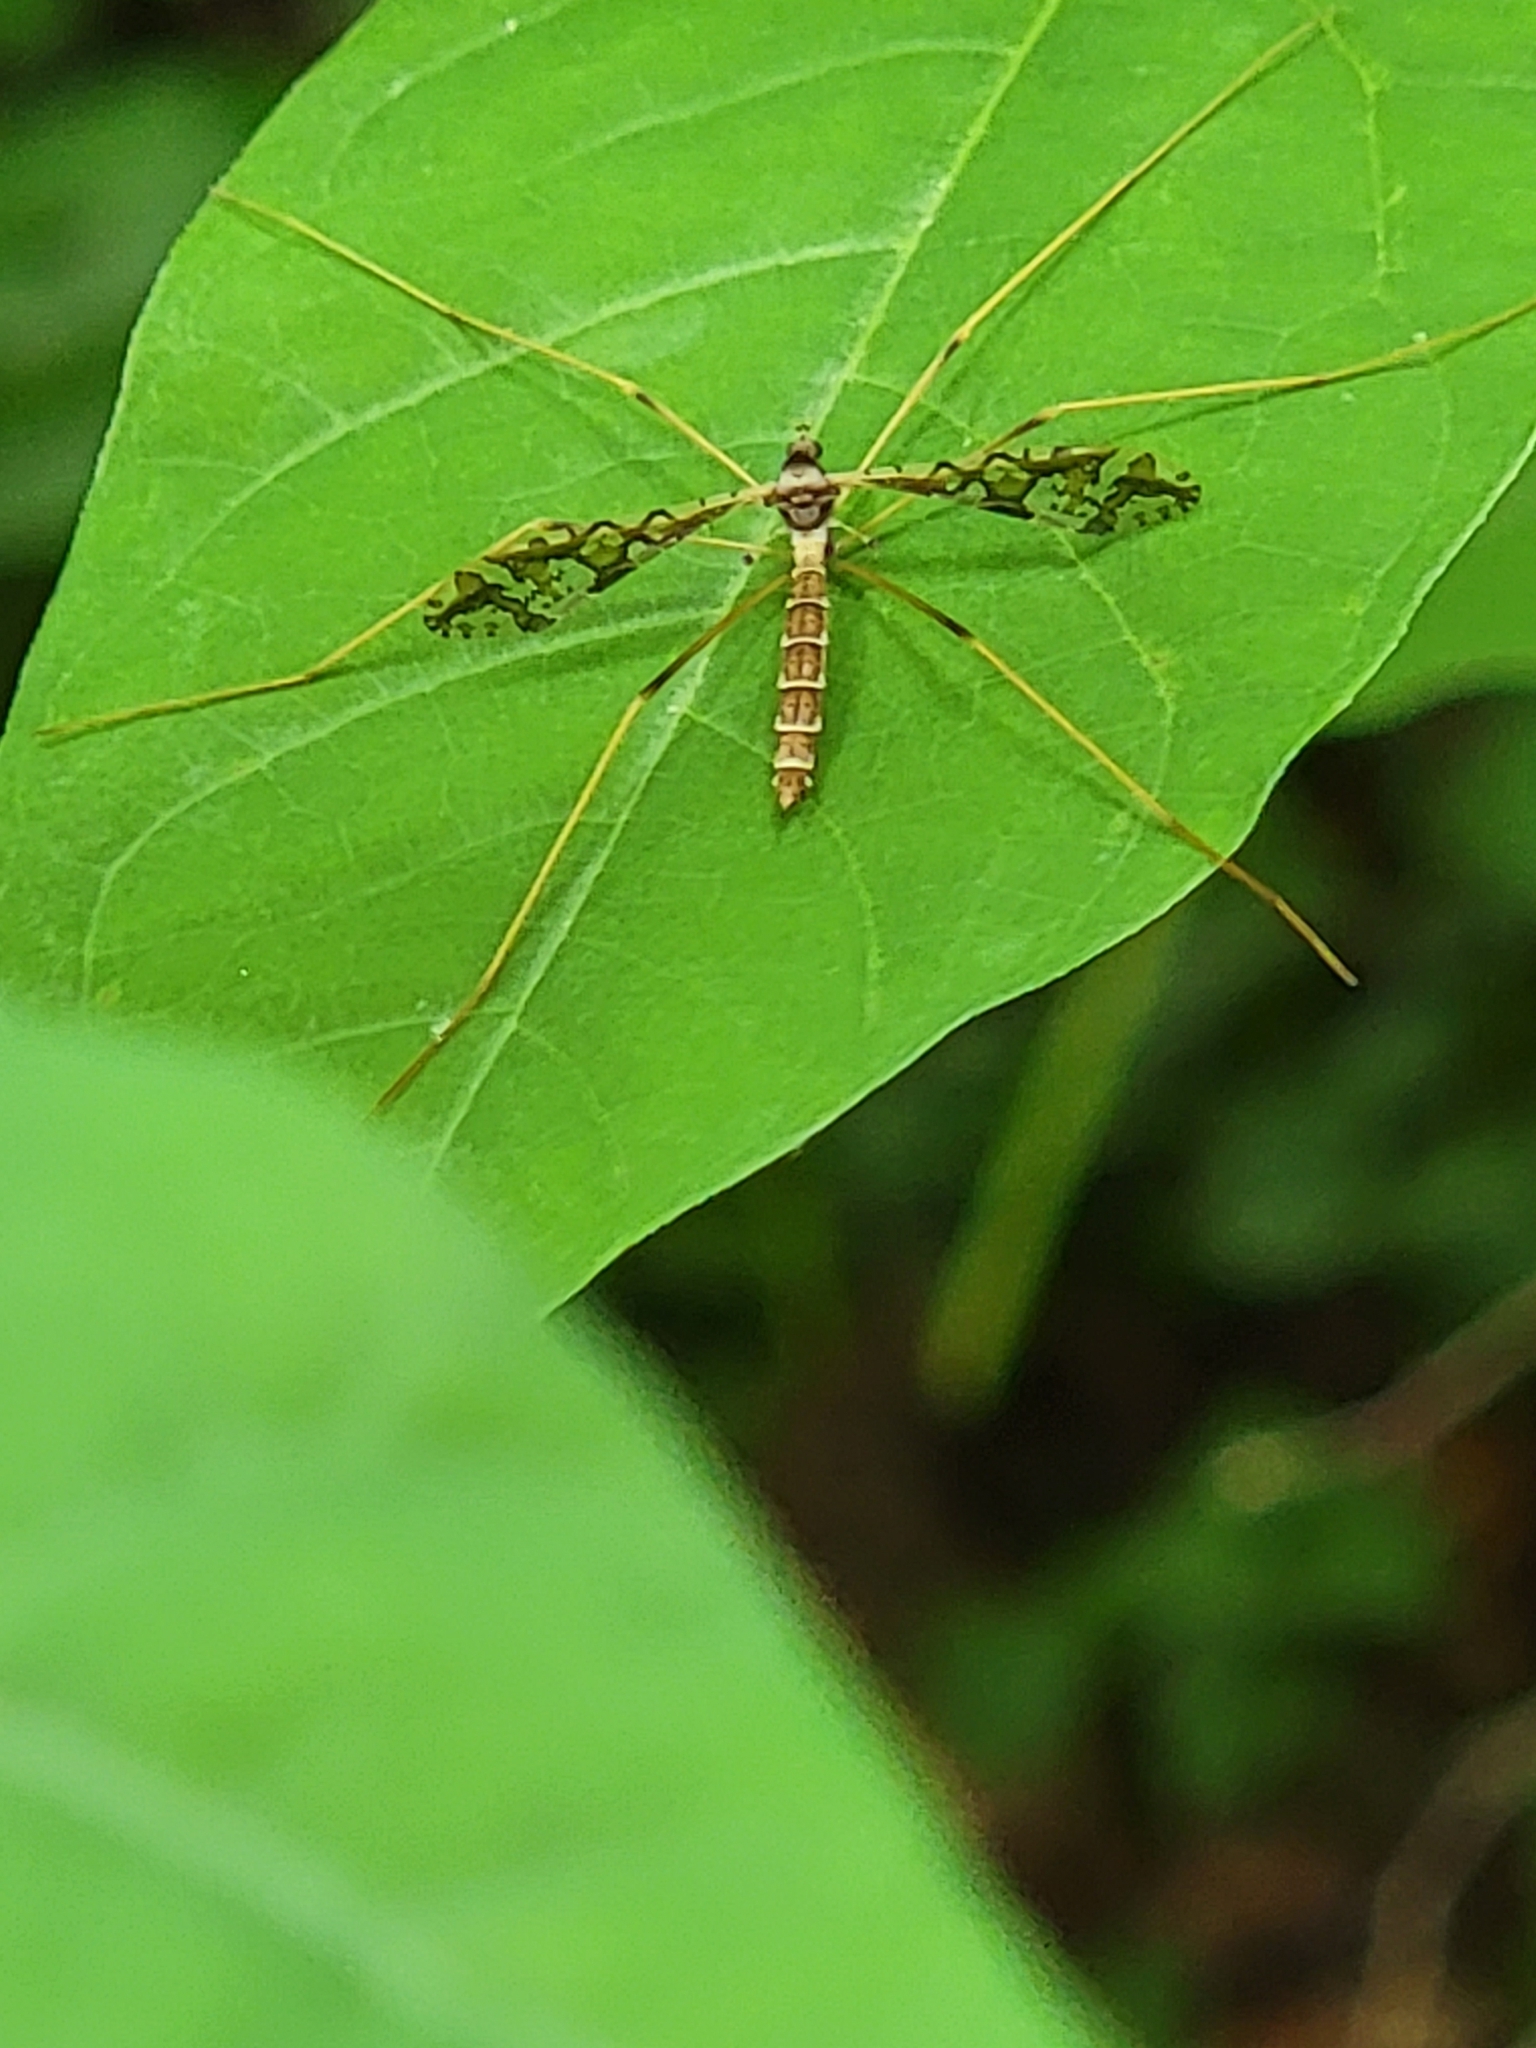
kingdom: Animalia
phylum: Arthropoda
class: Insecta
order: Diptera
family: Limoniidae
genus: Epiphragma
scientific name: Epiphragma solatrix
